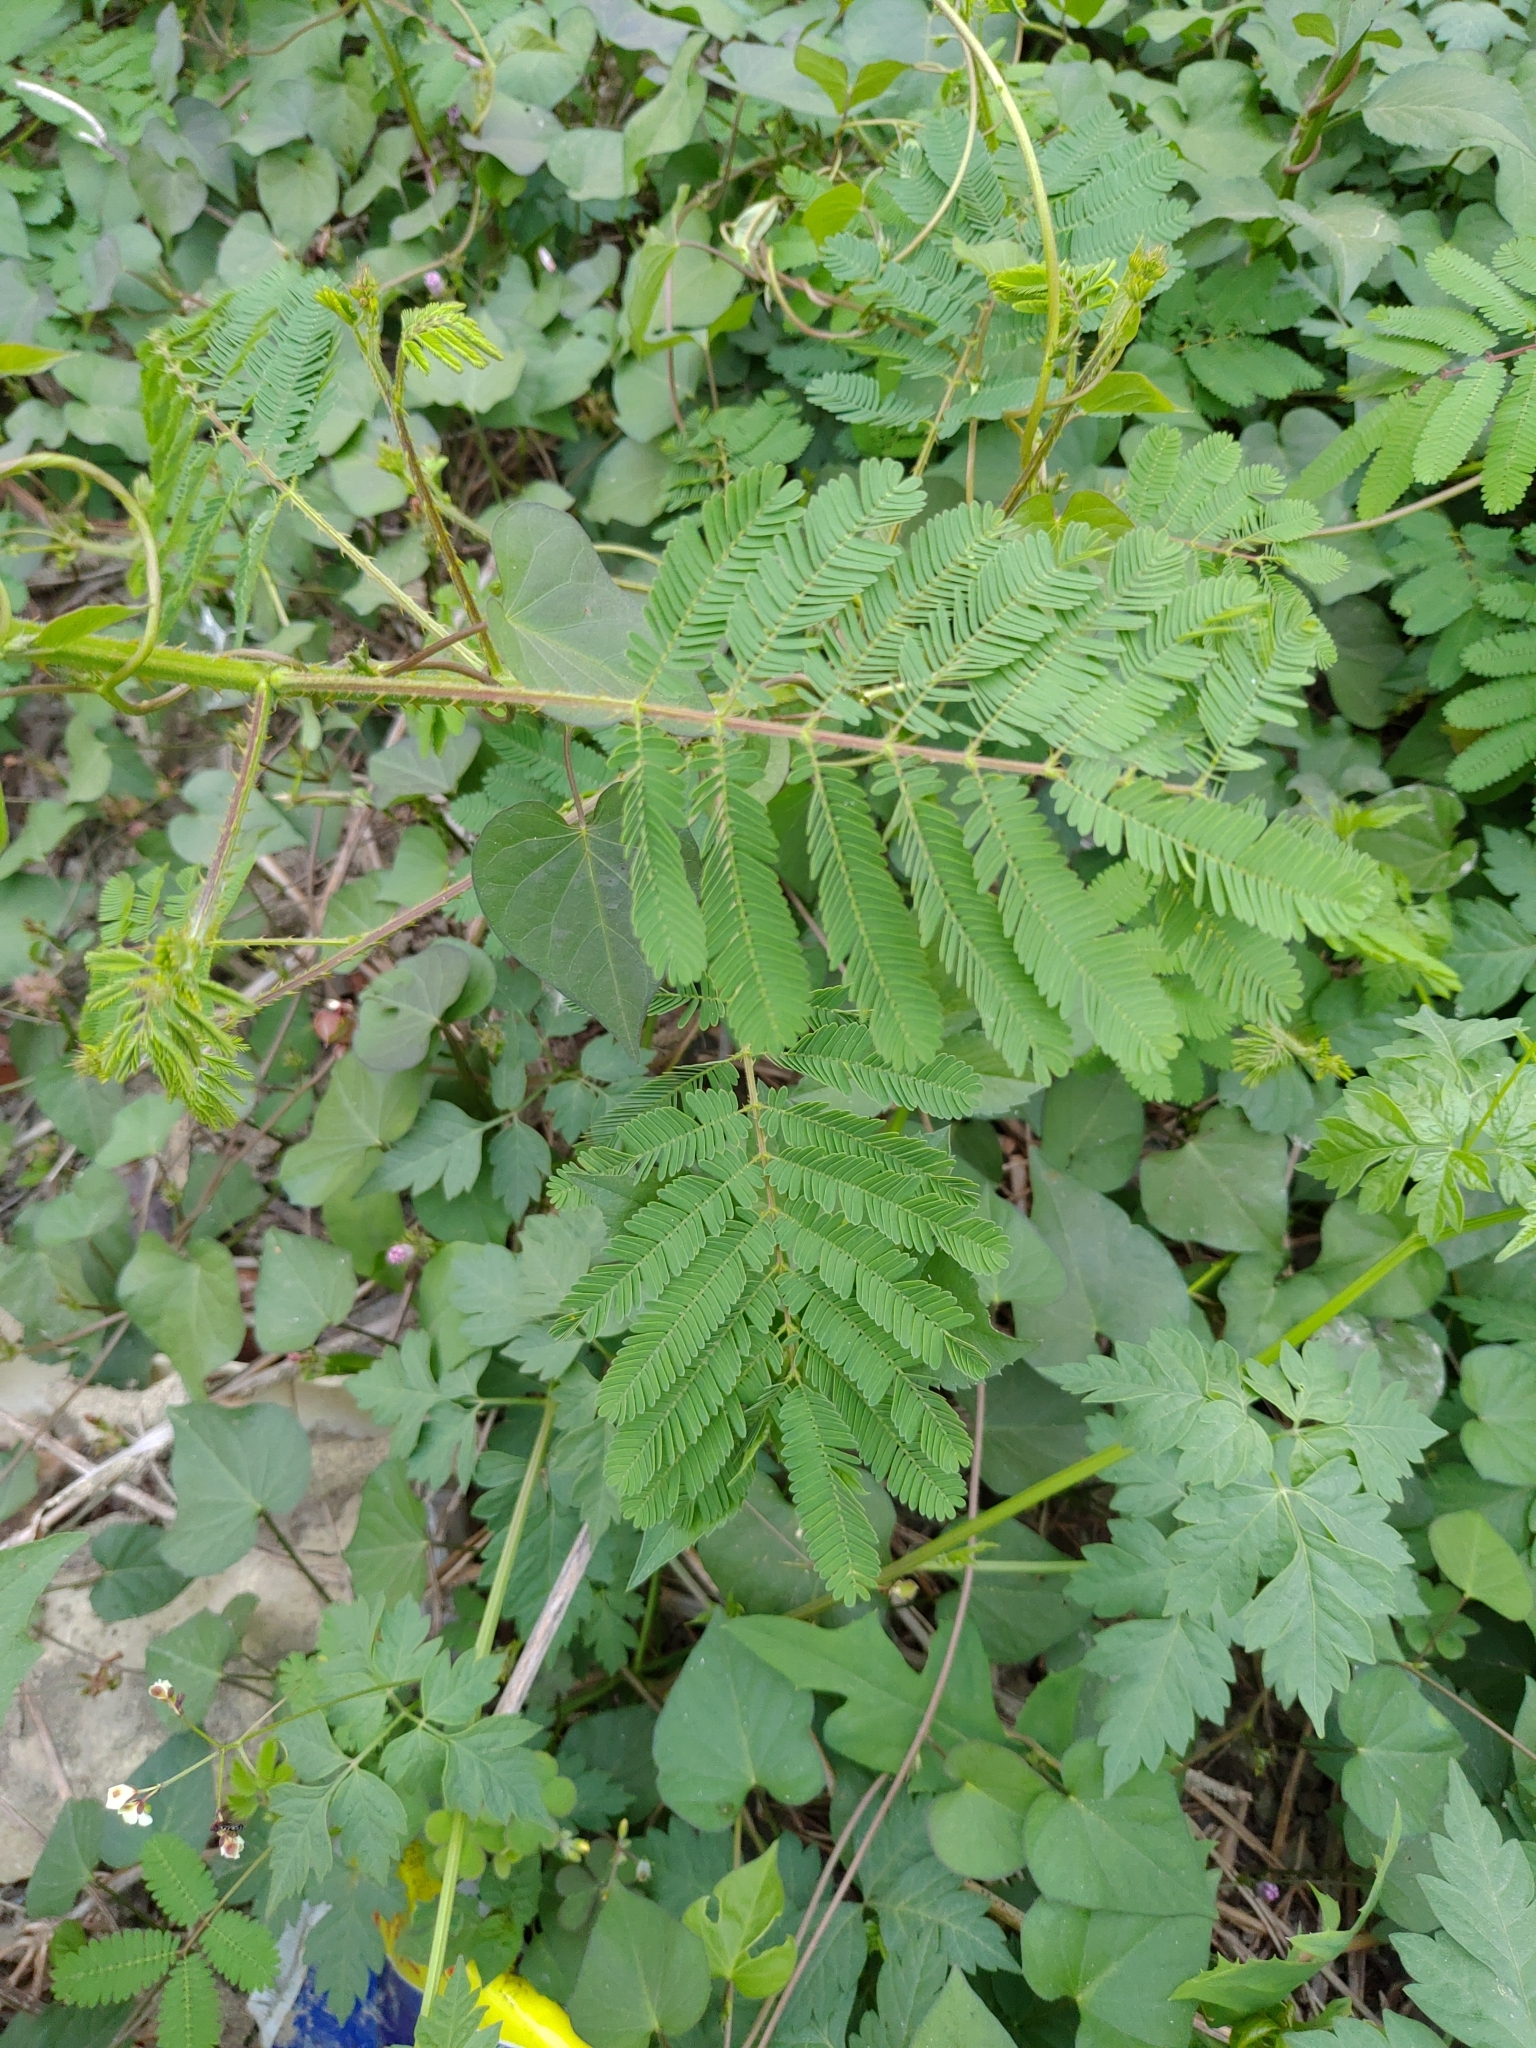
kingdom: Plantae
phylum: Tracheophyta
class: Magnoliopsida
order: Fabales
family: Fabaceae
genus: Mimosa
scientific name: Mimosa diplotricha
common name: Giant sensitive-plant
